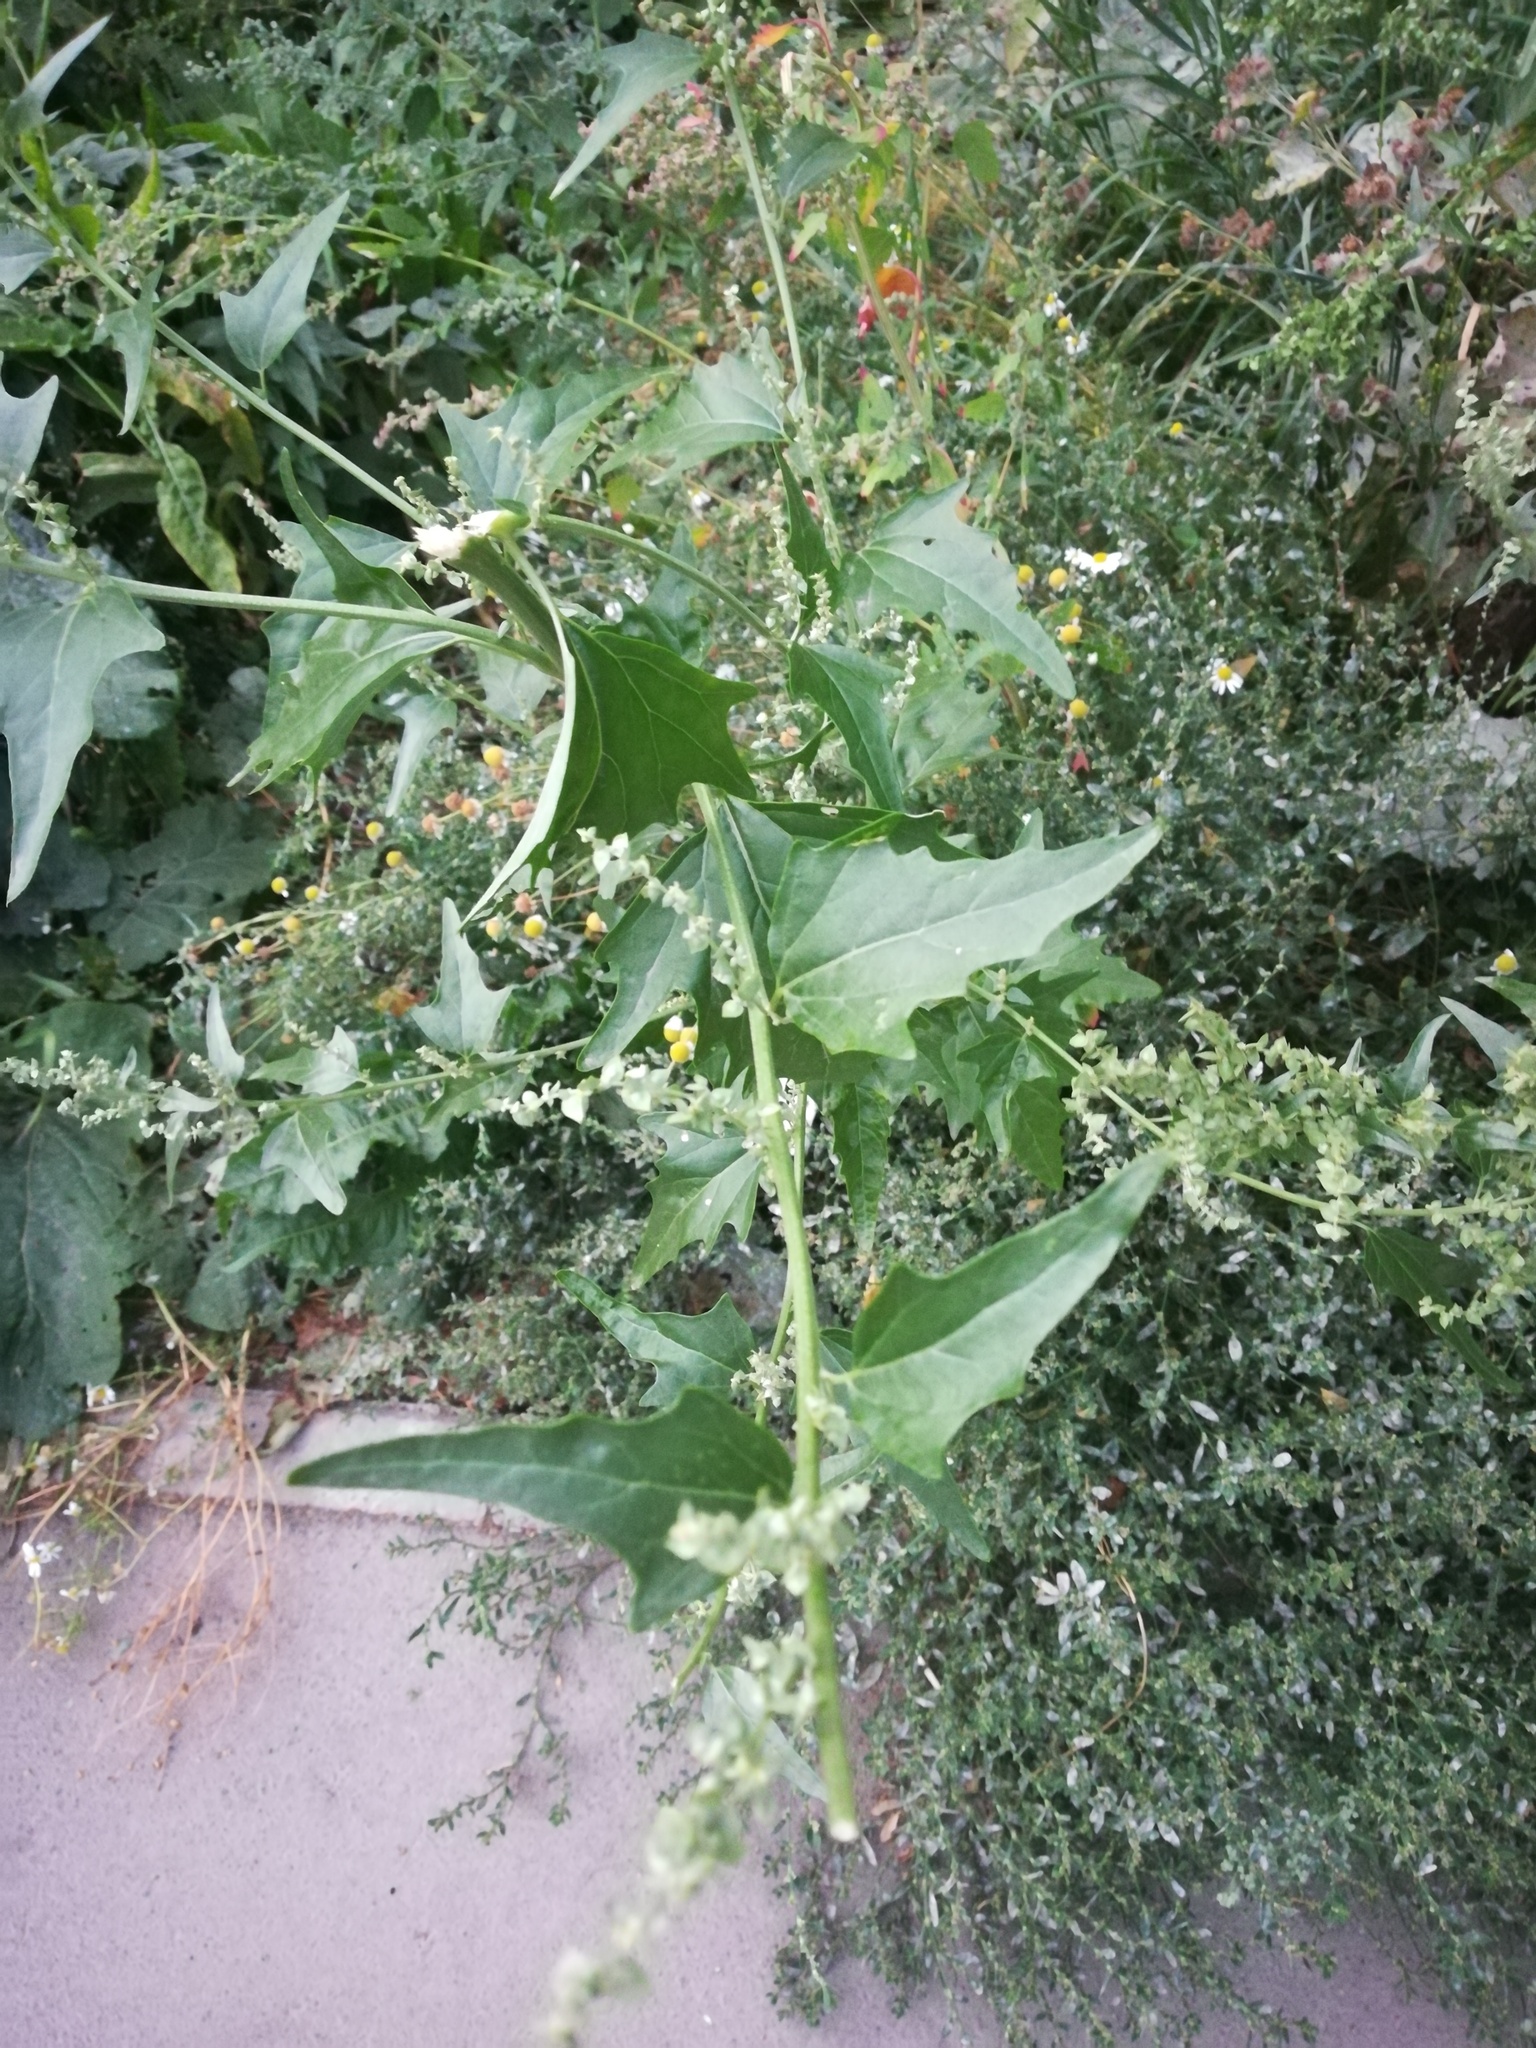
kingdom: Plantae
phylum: Tracheophyta
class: Magnoliopsida
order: Caryophyllales
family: Amaranthaceae
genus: Atriplex
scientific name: Atriplex sagittata
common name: Purple orache
